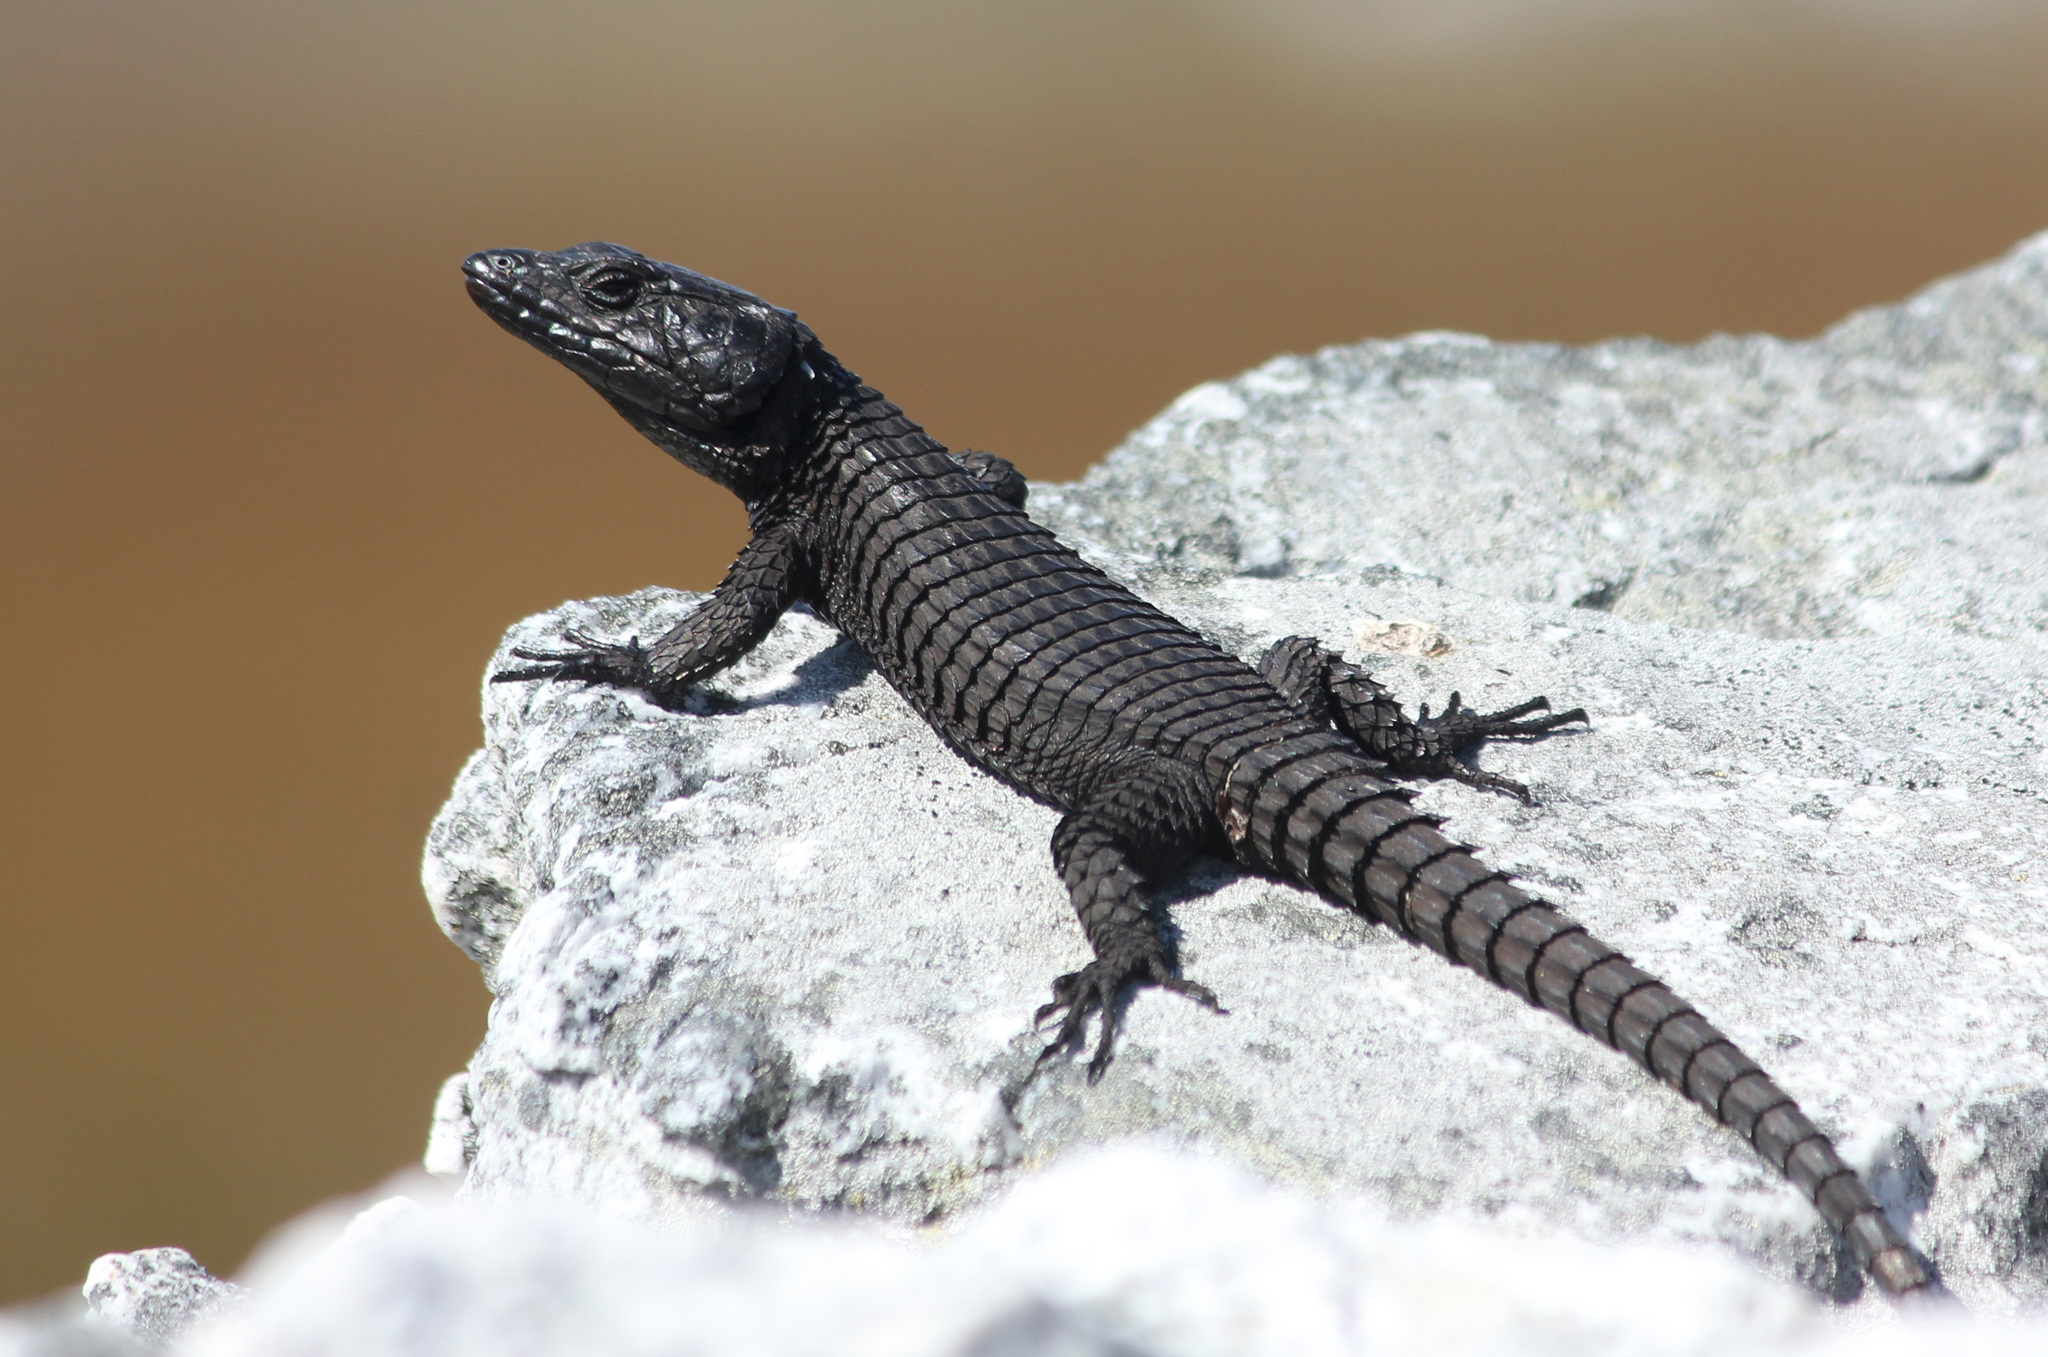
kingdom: Animalia
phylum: Chordata
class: Squamata
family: Cordylidae
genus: Cordylus
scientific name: Cordylus niger
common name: Black girdled lizard
